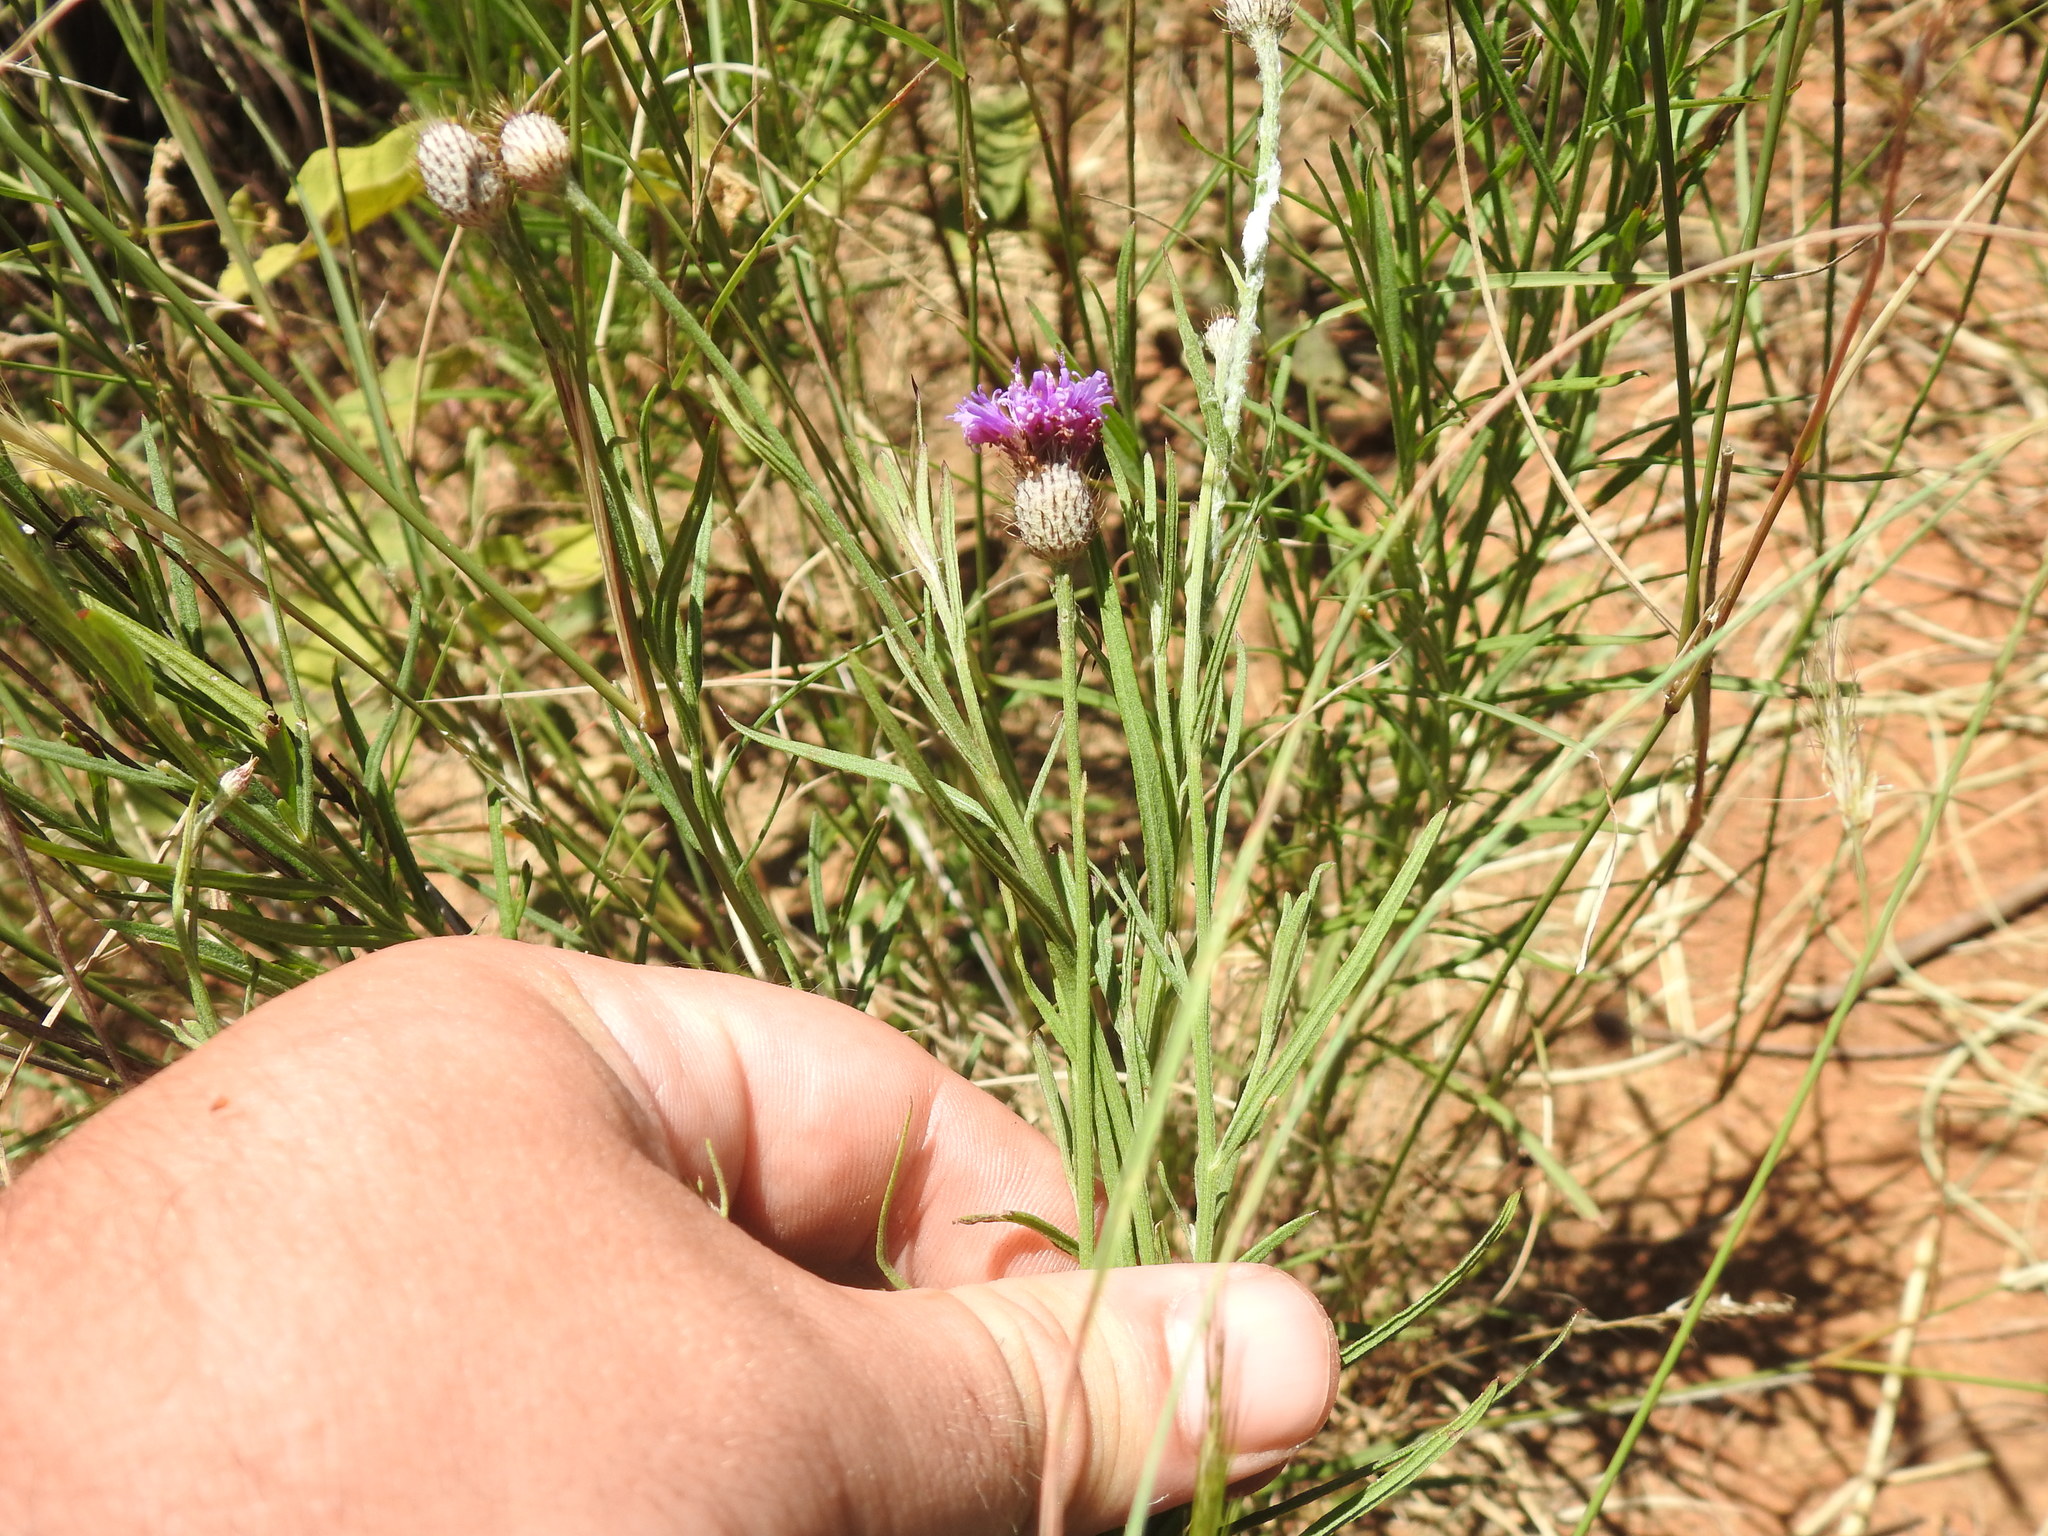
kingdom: Plantae
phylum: Tracheophyta
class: Magnoliopsida
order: Asterales
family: Asteraceae
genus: Parapolydora
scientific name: Parapolydora fastigiata
